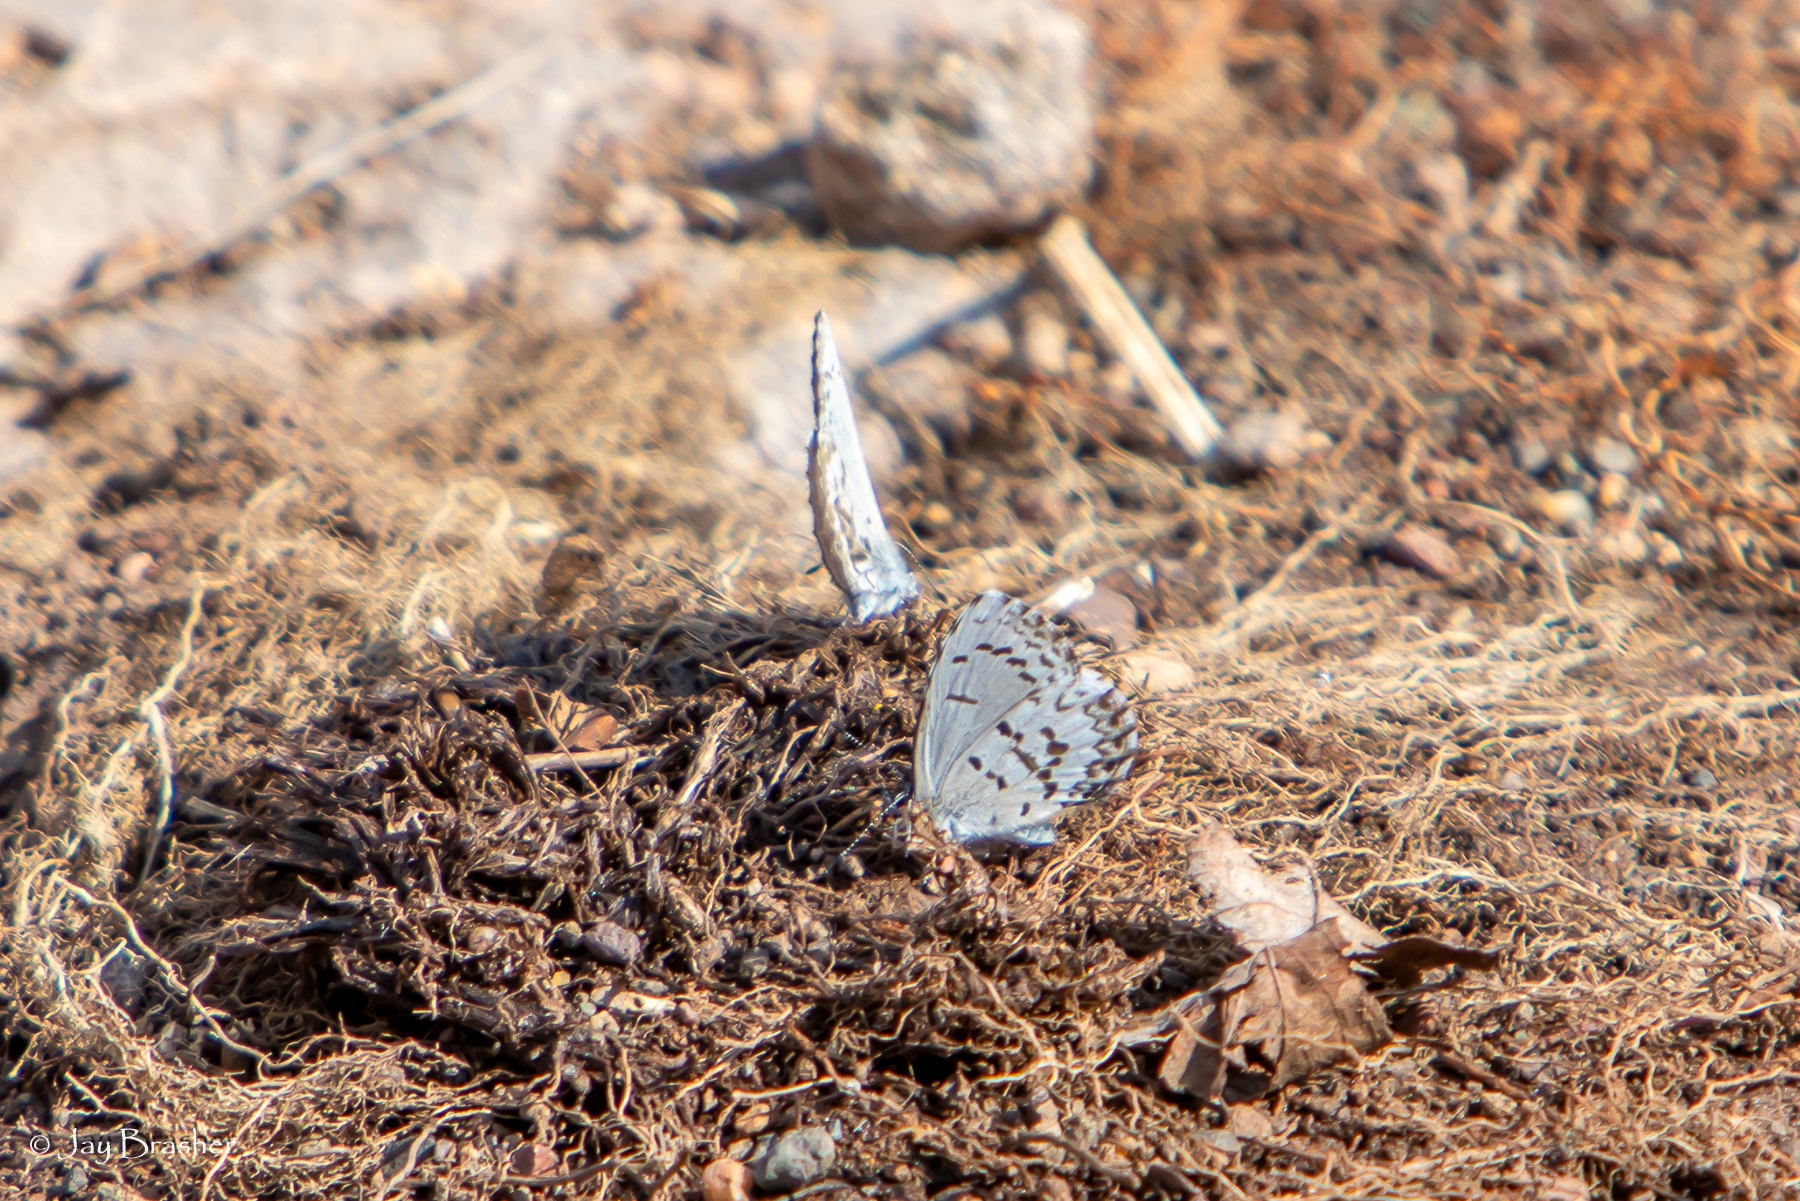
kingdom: Animalia
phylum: Arthropoda
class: Insecta
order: Lepidoptera
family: Lycaenidae
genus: Celastrina
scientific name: Celastrina lucia
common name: Lucia azure
